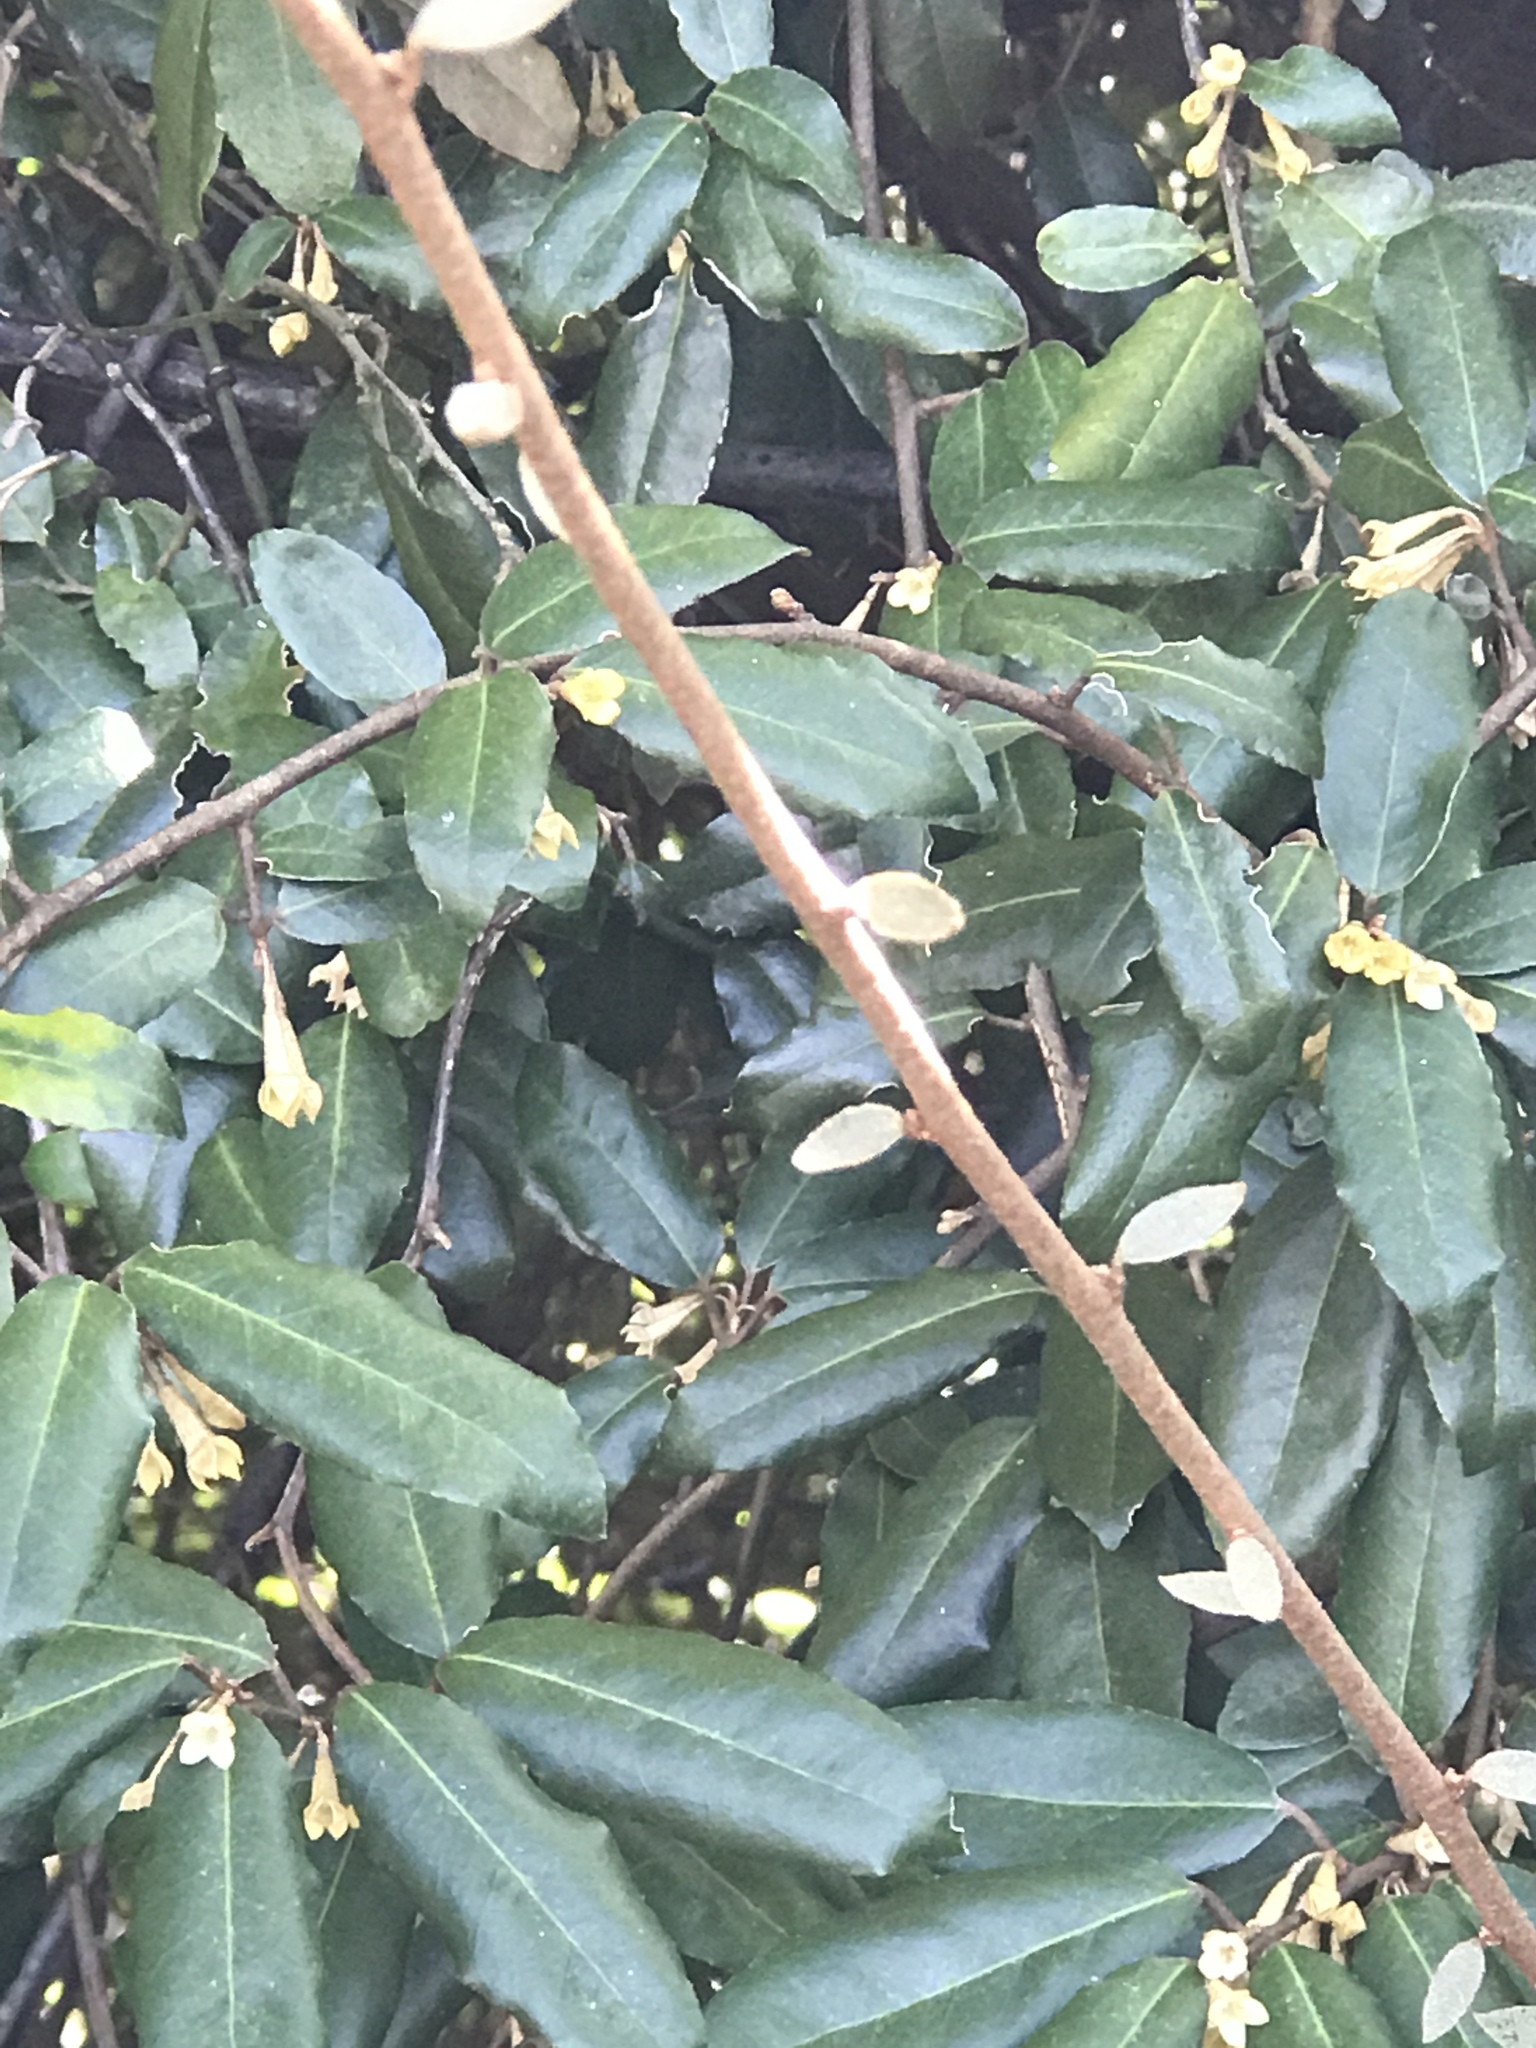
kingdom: Plantae
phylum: Tracheophyta
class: Magnoliopsida
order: Rosales
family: Elaeagnaceae
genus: Elaeagnus
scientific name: Elaeagnus pungens
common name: Spiny oleaster
